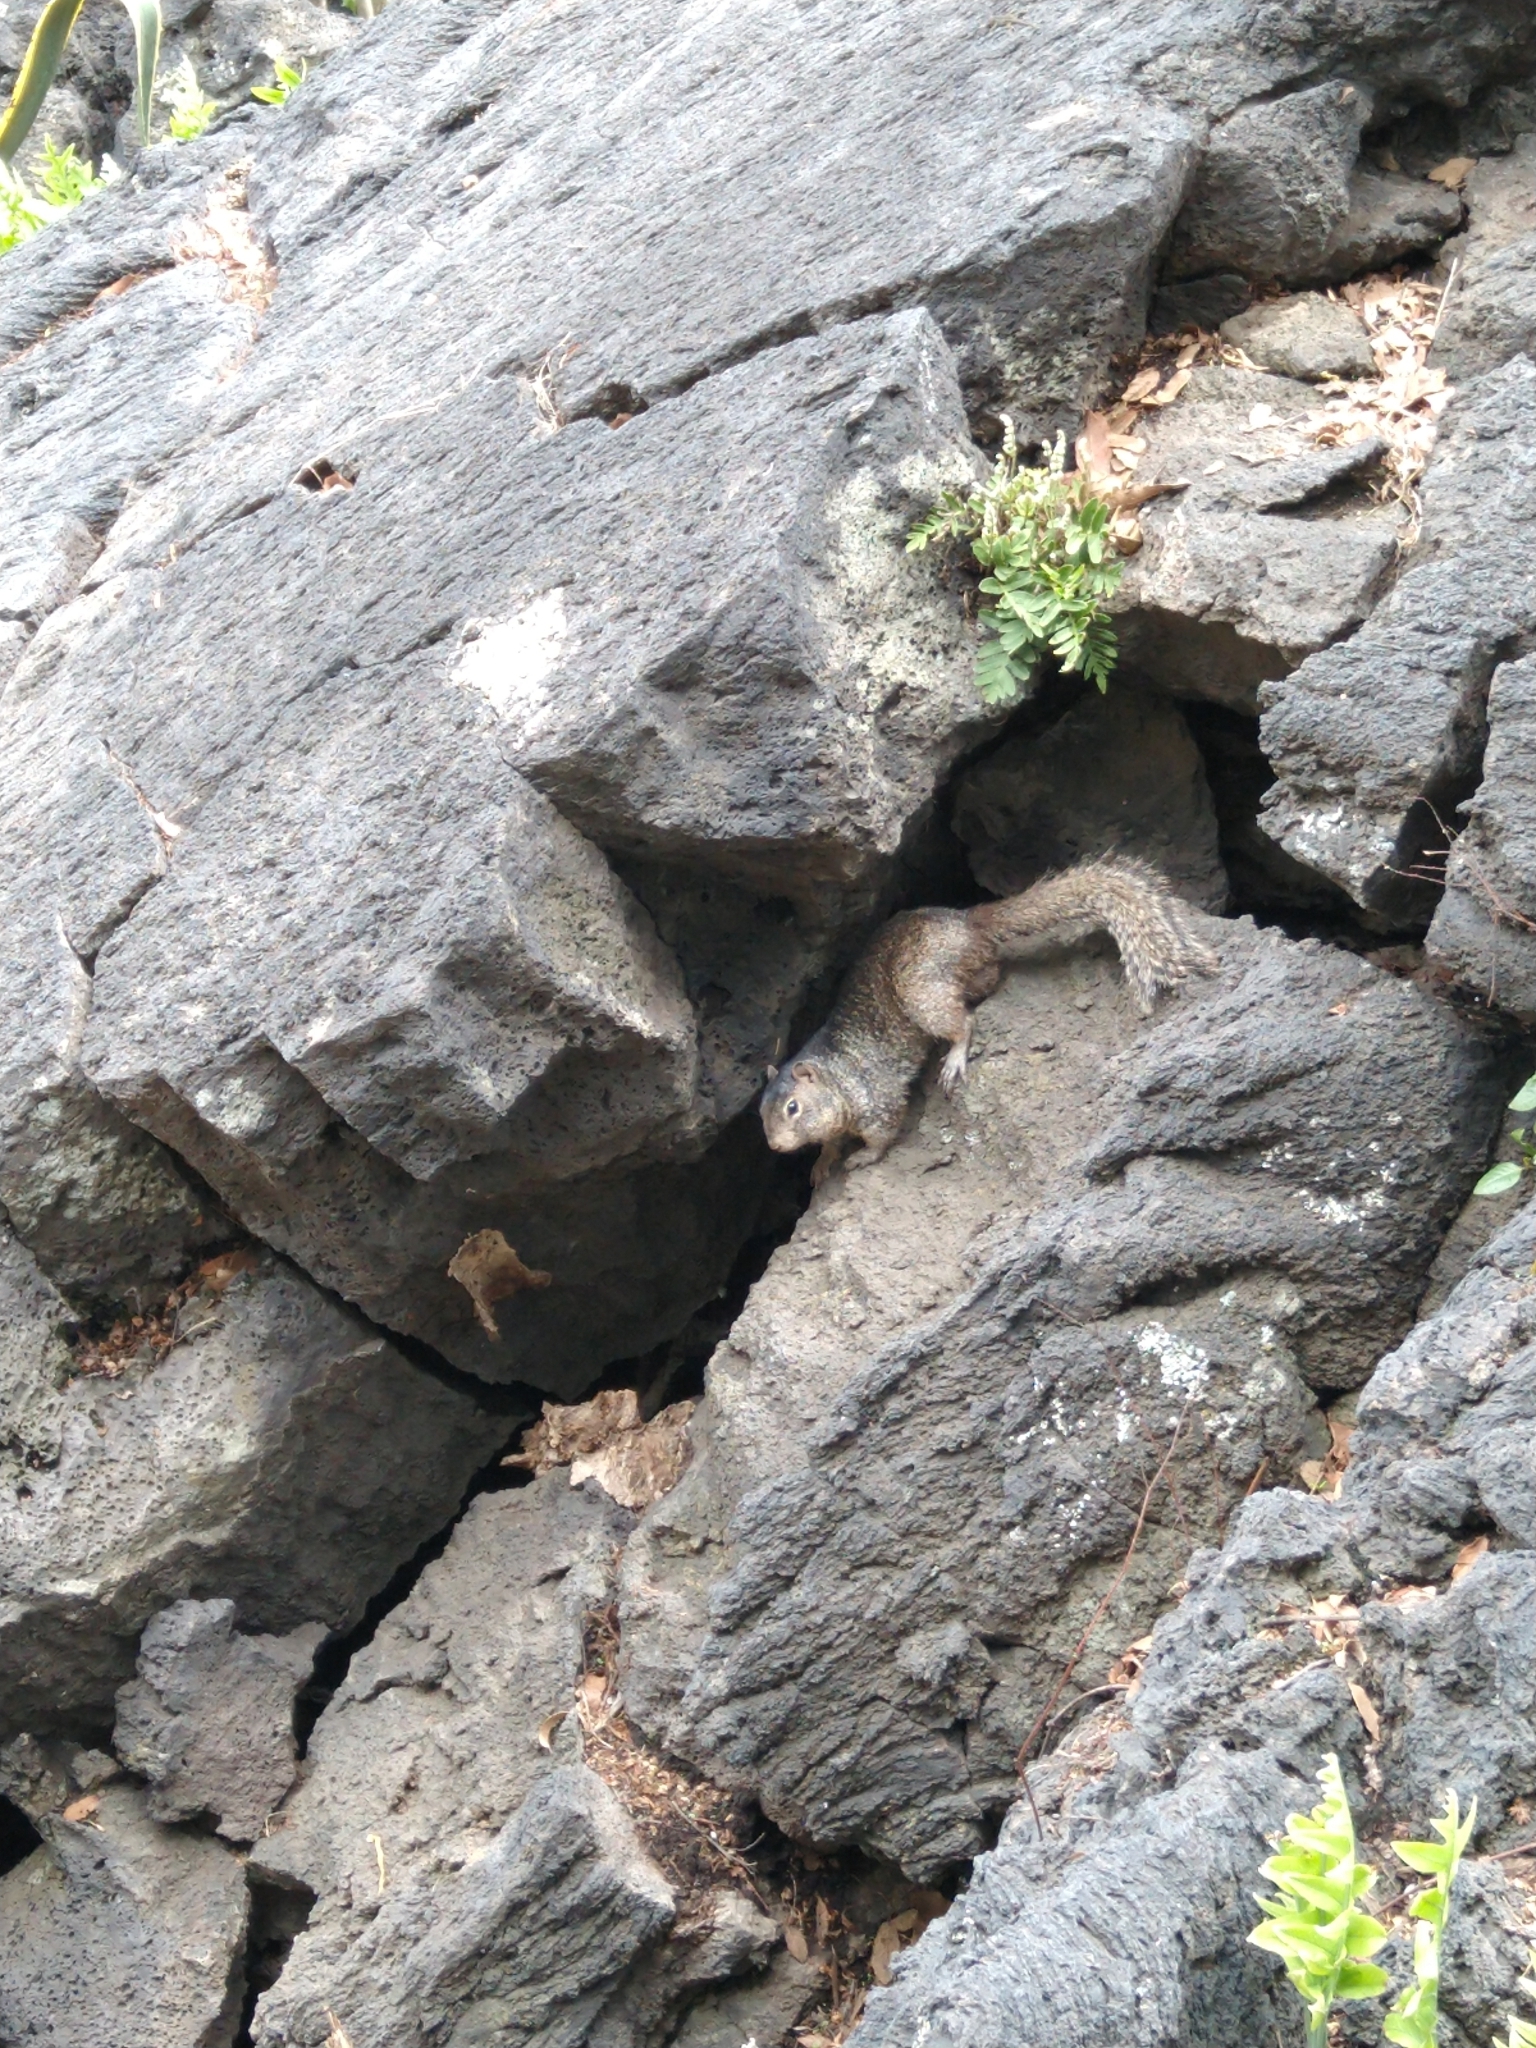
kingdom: Animalia
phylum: Chordata
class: Mammalia
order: Rodentia
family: Sciuridae
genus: Otospermophilus
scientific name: Otospermophilus variegatus
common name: Rock squirrel
